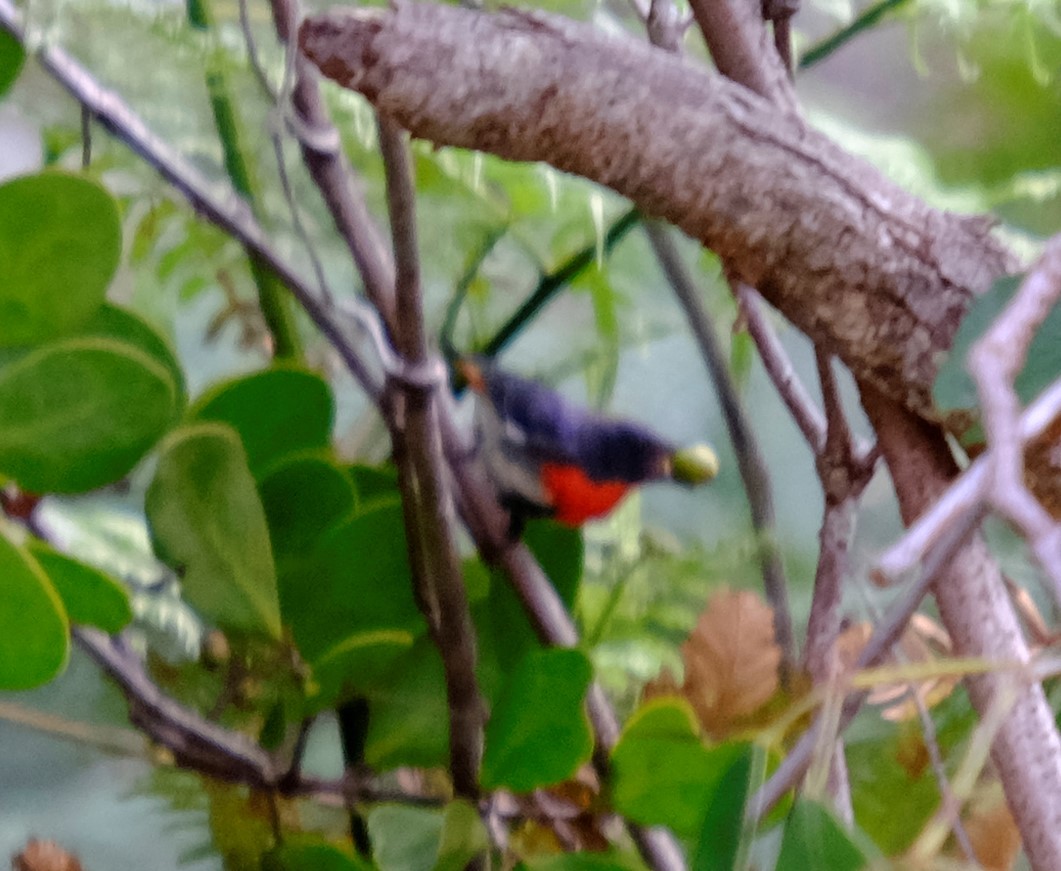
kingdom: Animalia
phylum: Chordata
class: Aves
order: Passeriformes
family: Dicaeidae
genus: Dicaeum
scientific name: Dicaeum hirundinaceum
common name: Mistletoebird
